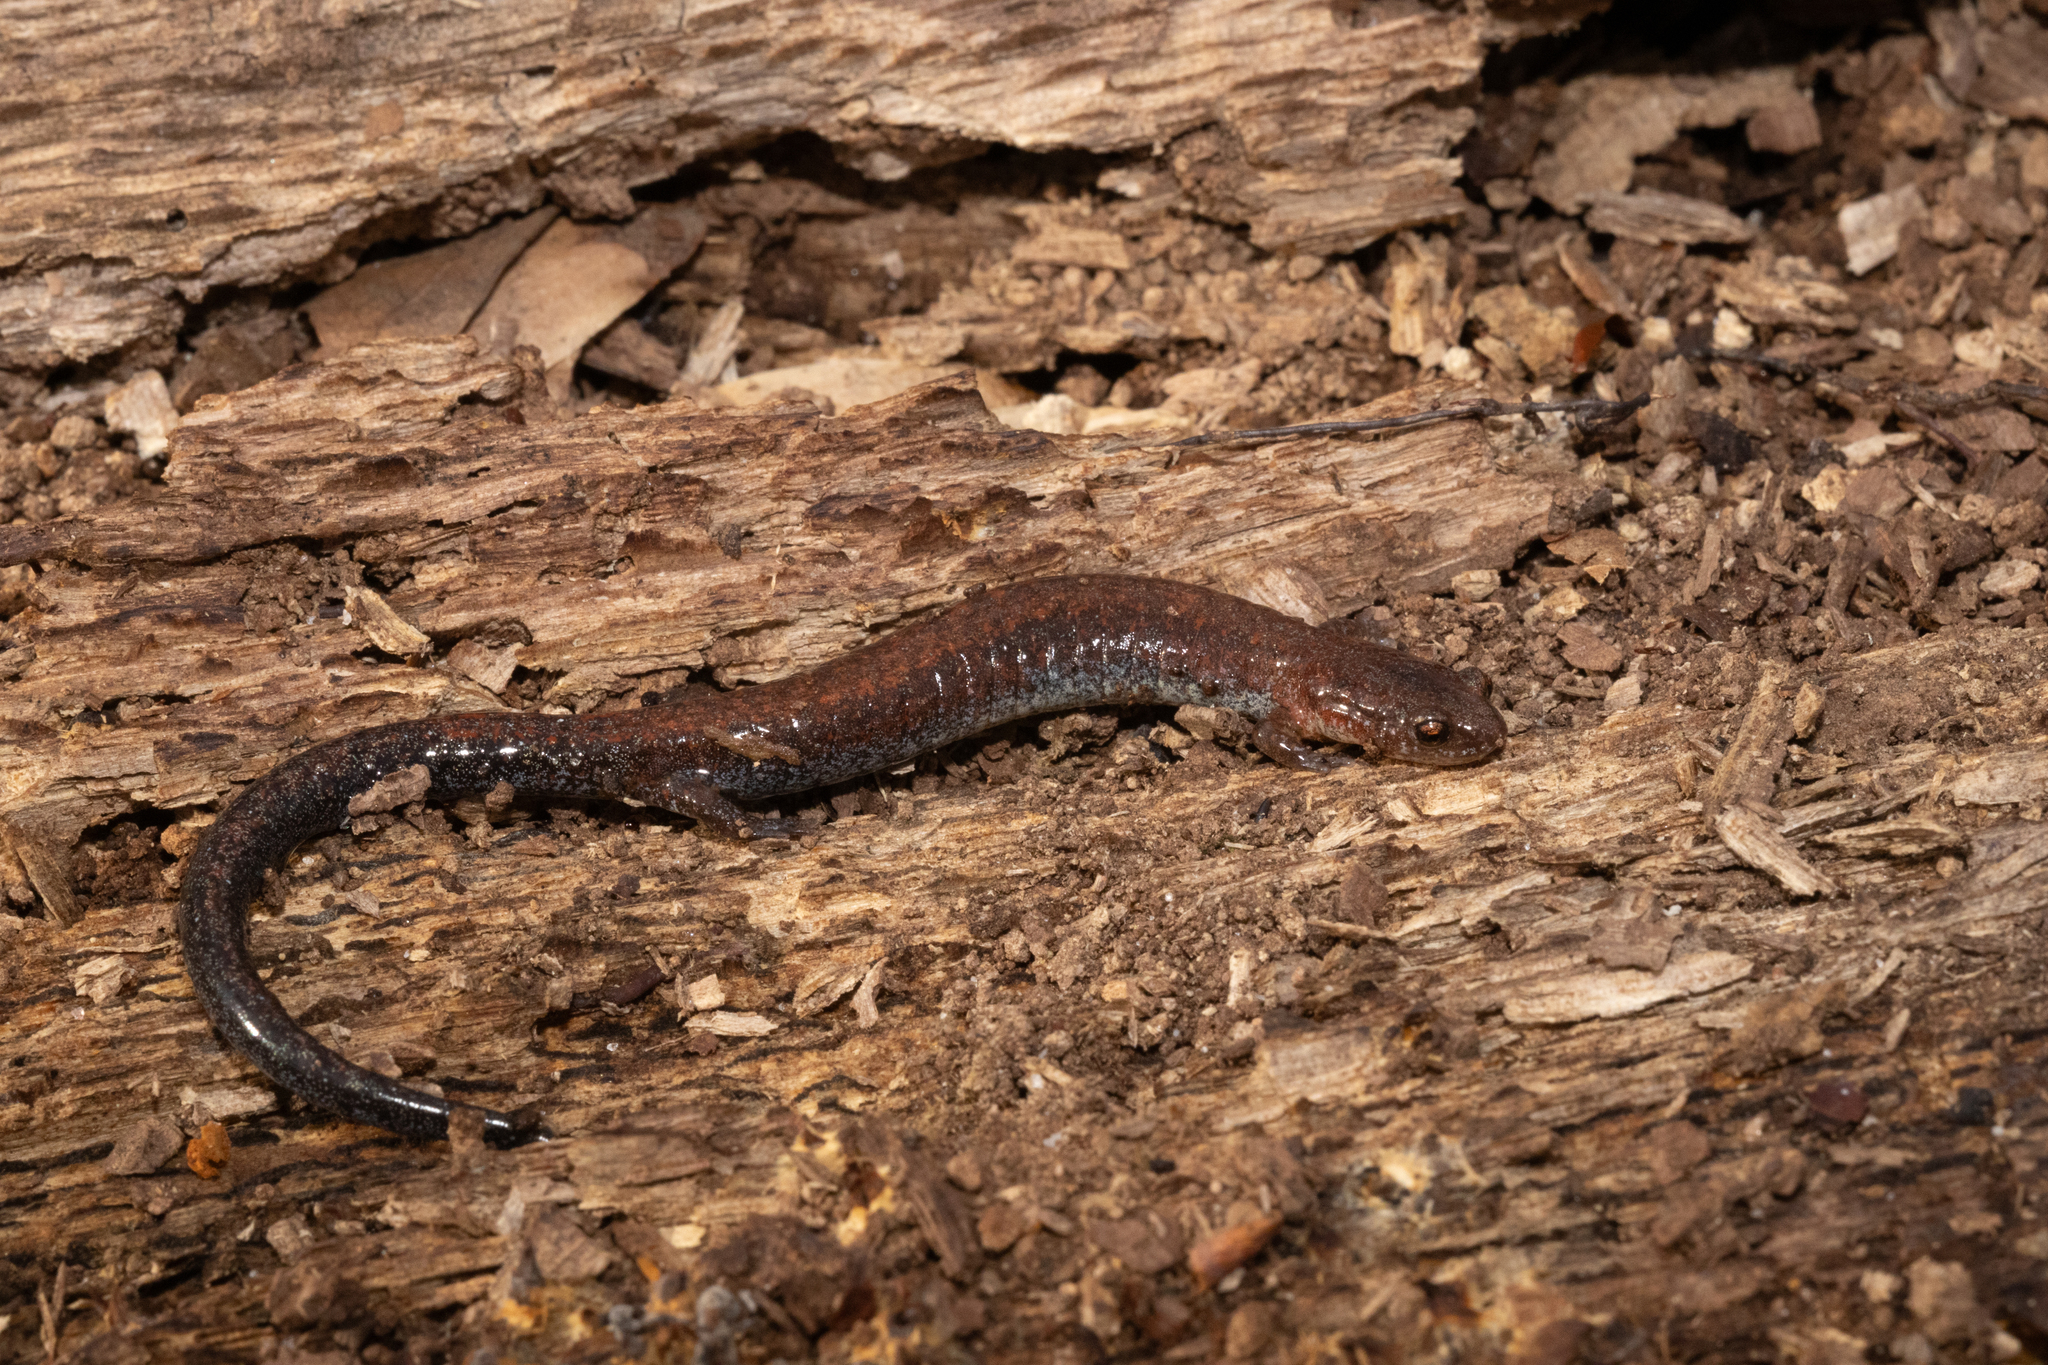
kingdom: Animalia
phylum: Chordata
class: Amphibia
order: Caudata
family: Plethodontidae
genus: Plethodon
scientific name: Plethodon serratus
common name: Southern red-backed salamander
